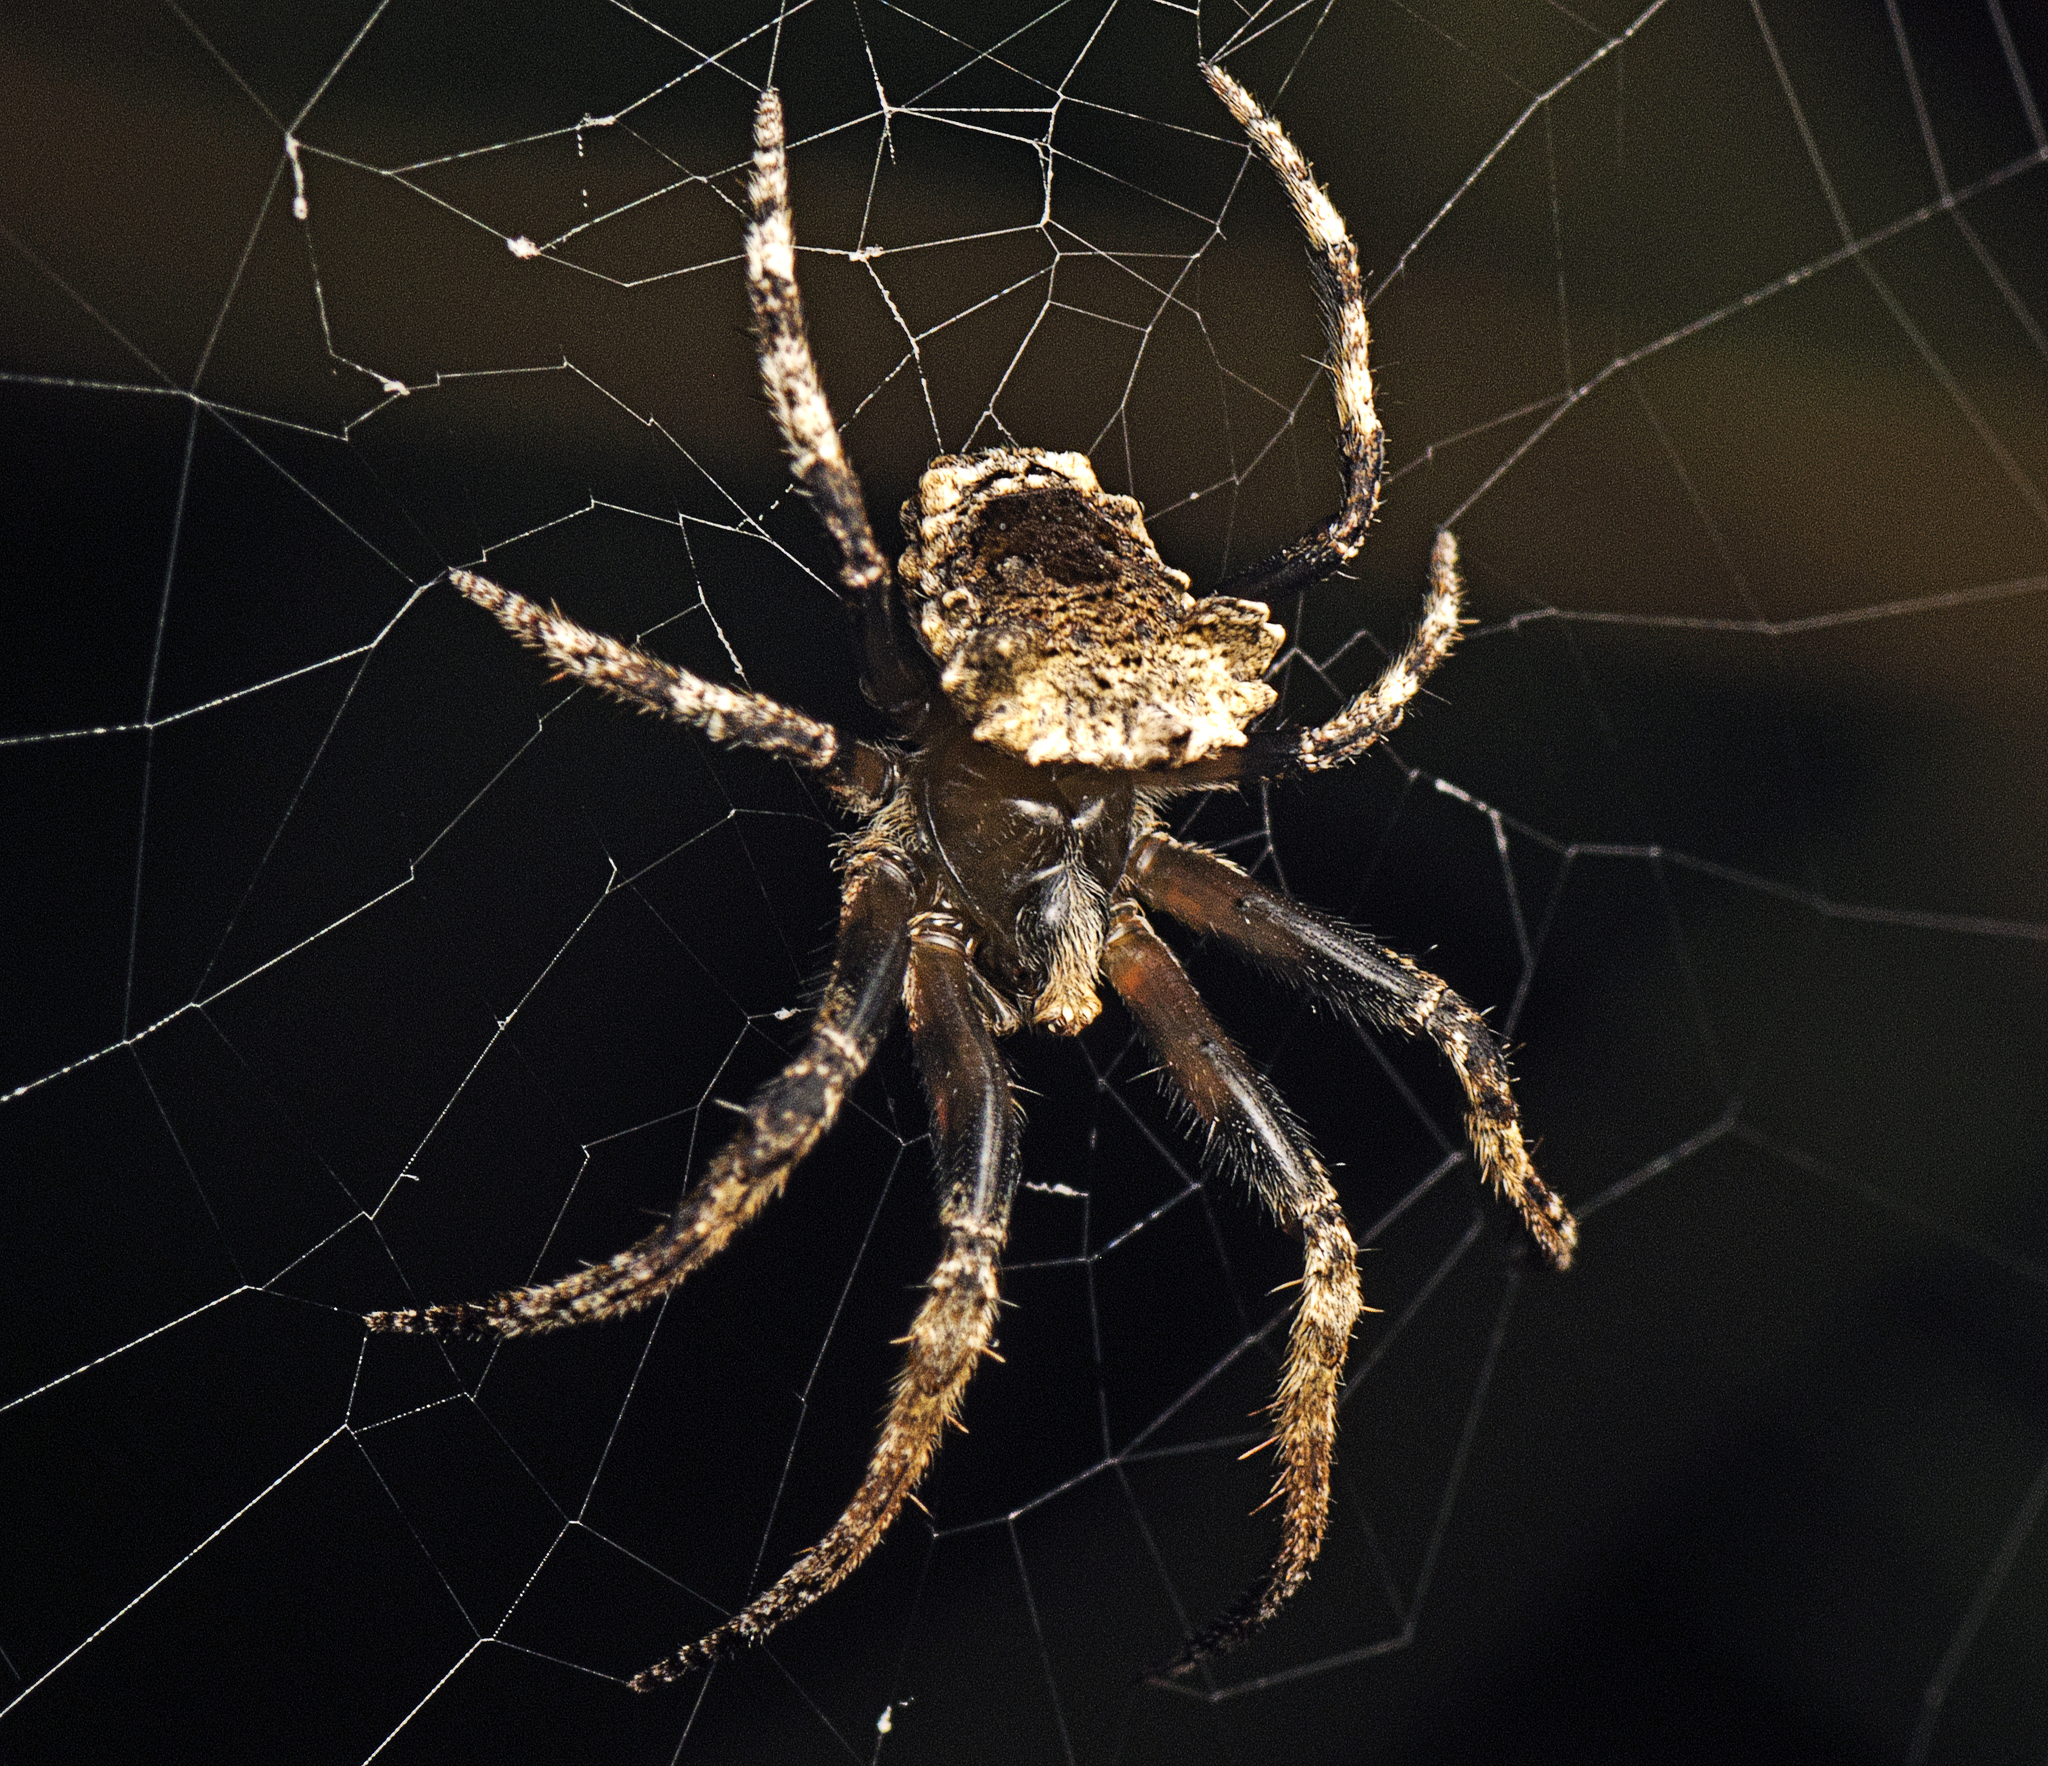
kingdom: Animalia
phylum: Arthropoda
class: Arachnida
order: Araneae
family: Araneidae
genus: Poltys
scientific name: Poltys illepidus
